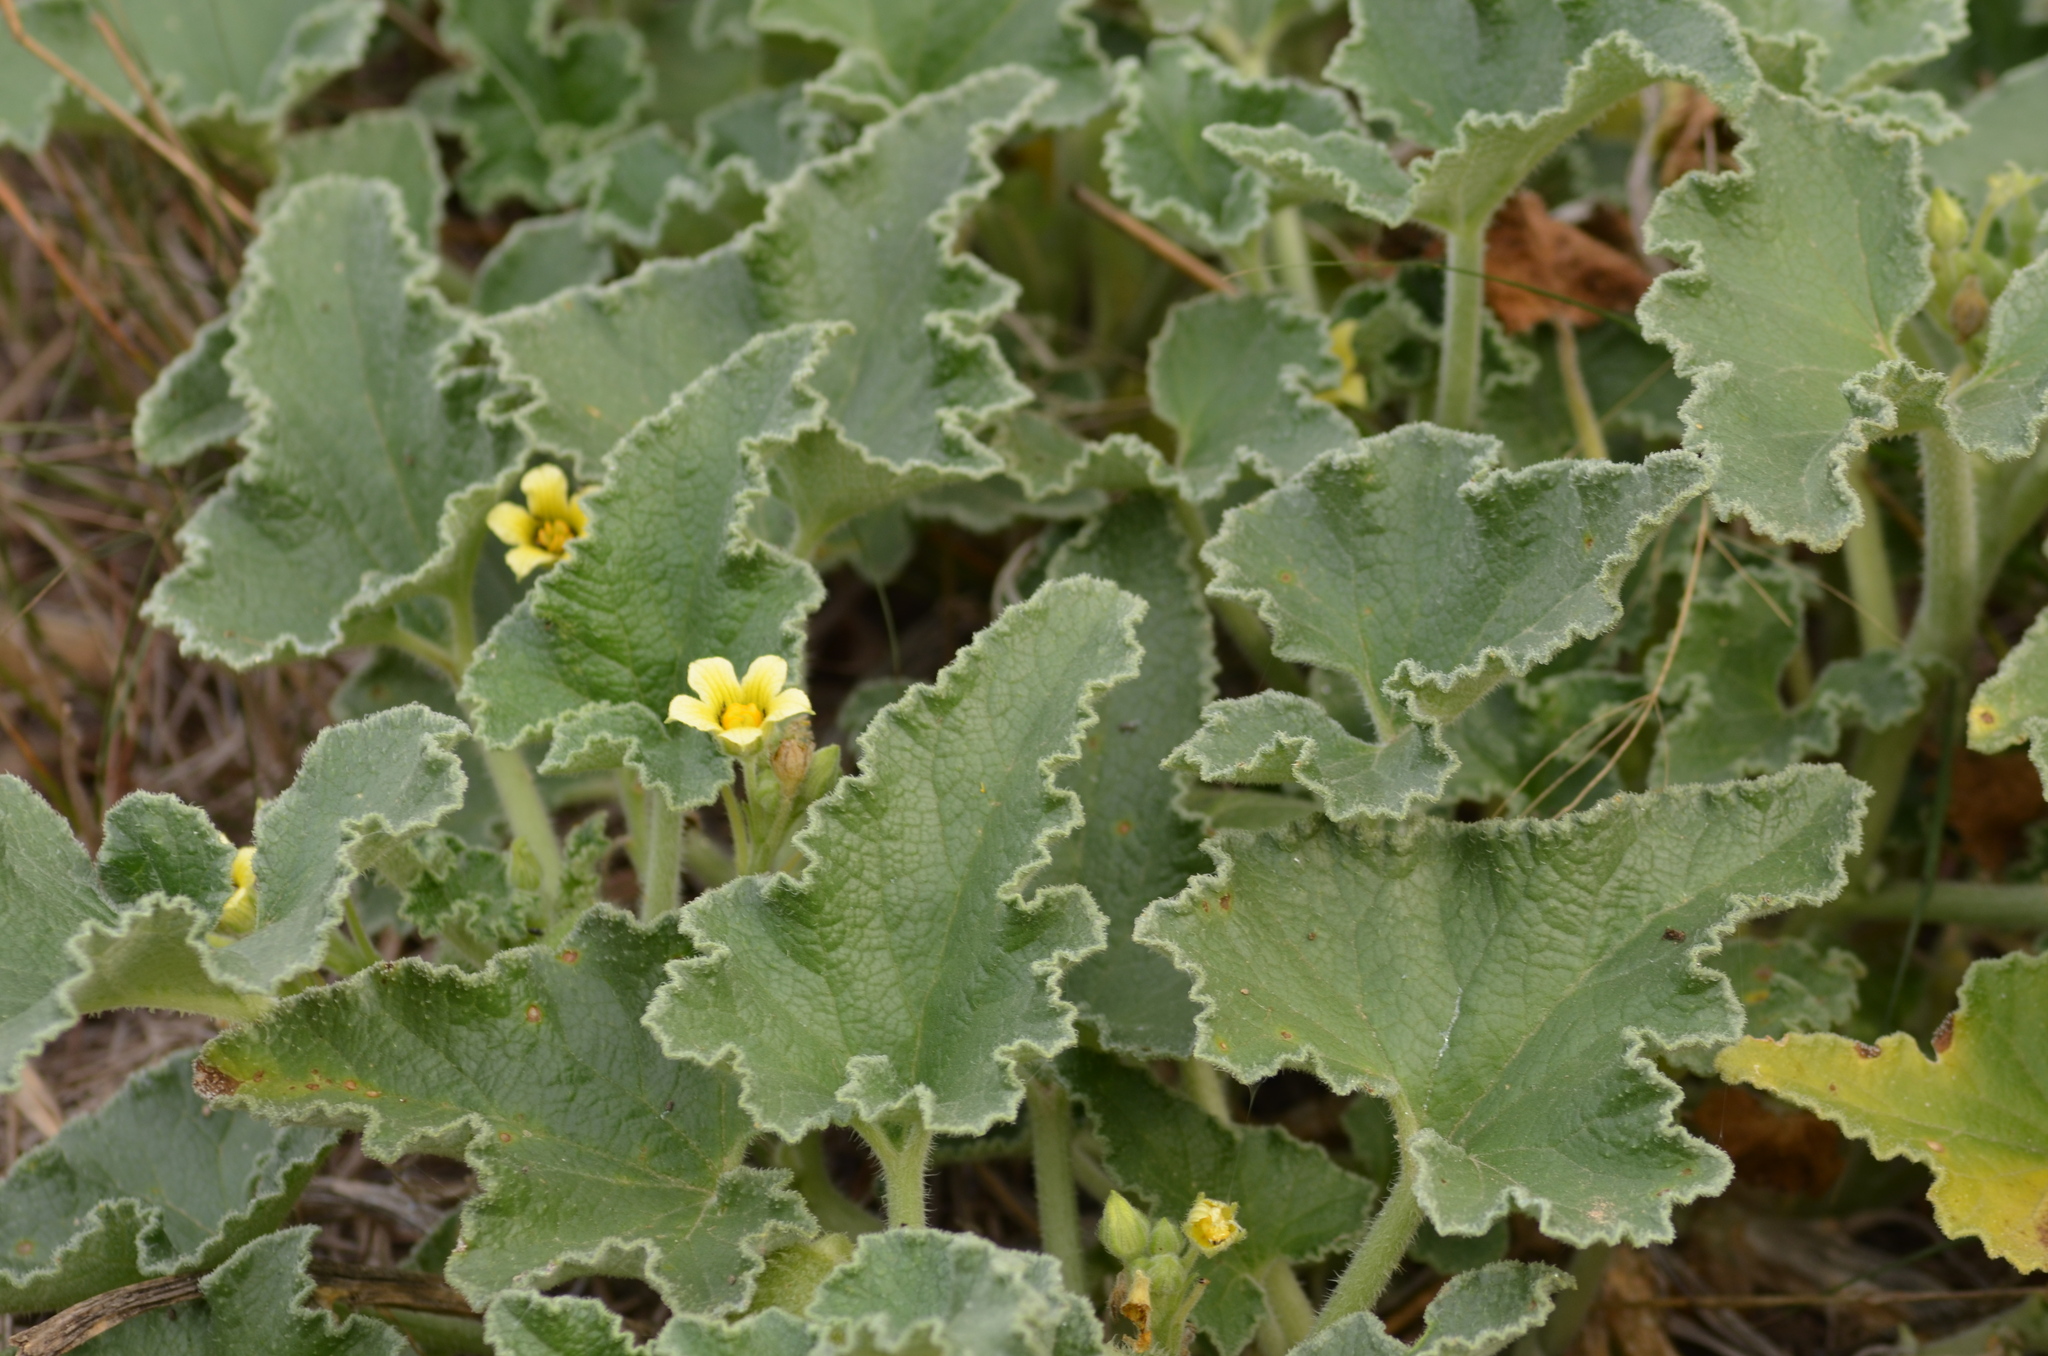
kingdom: Plantae
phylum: Tracheophyta
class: Magnoliopsida
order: Cucurbitales
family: Cucurbitaceae
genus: Ecballium
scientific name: Ecballium elaterium
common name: Squirting cucumber
